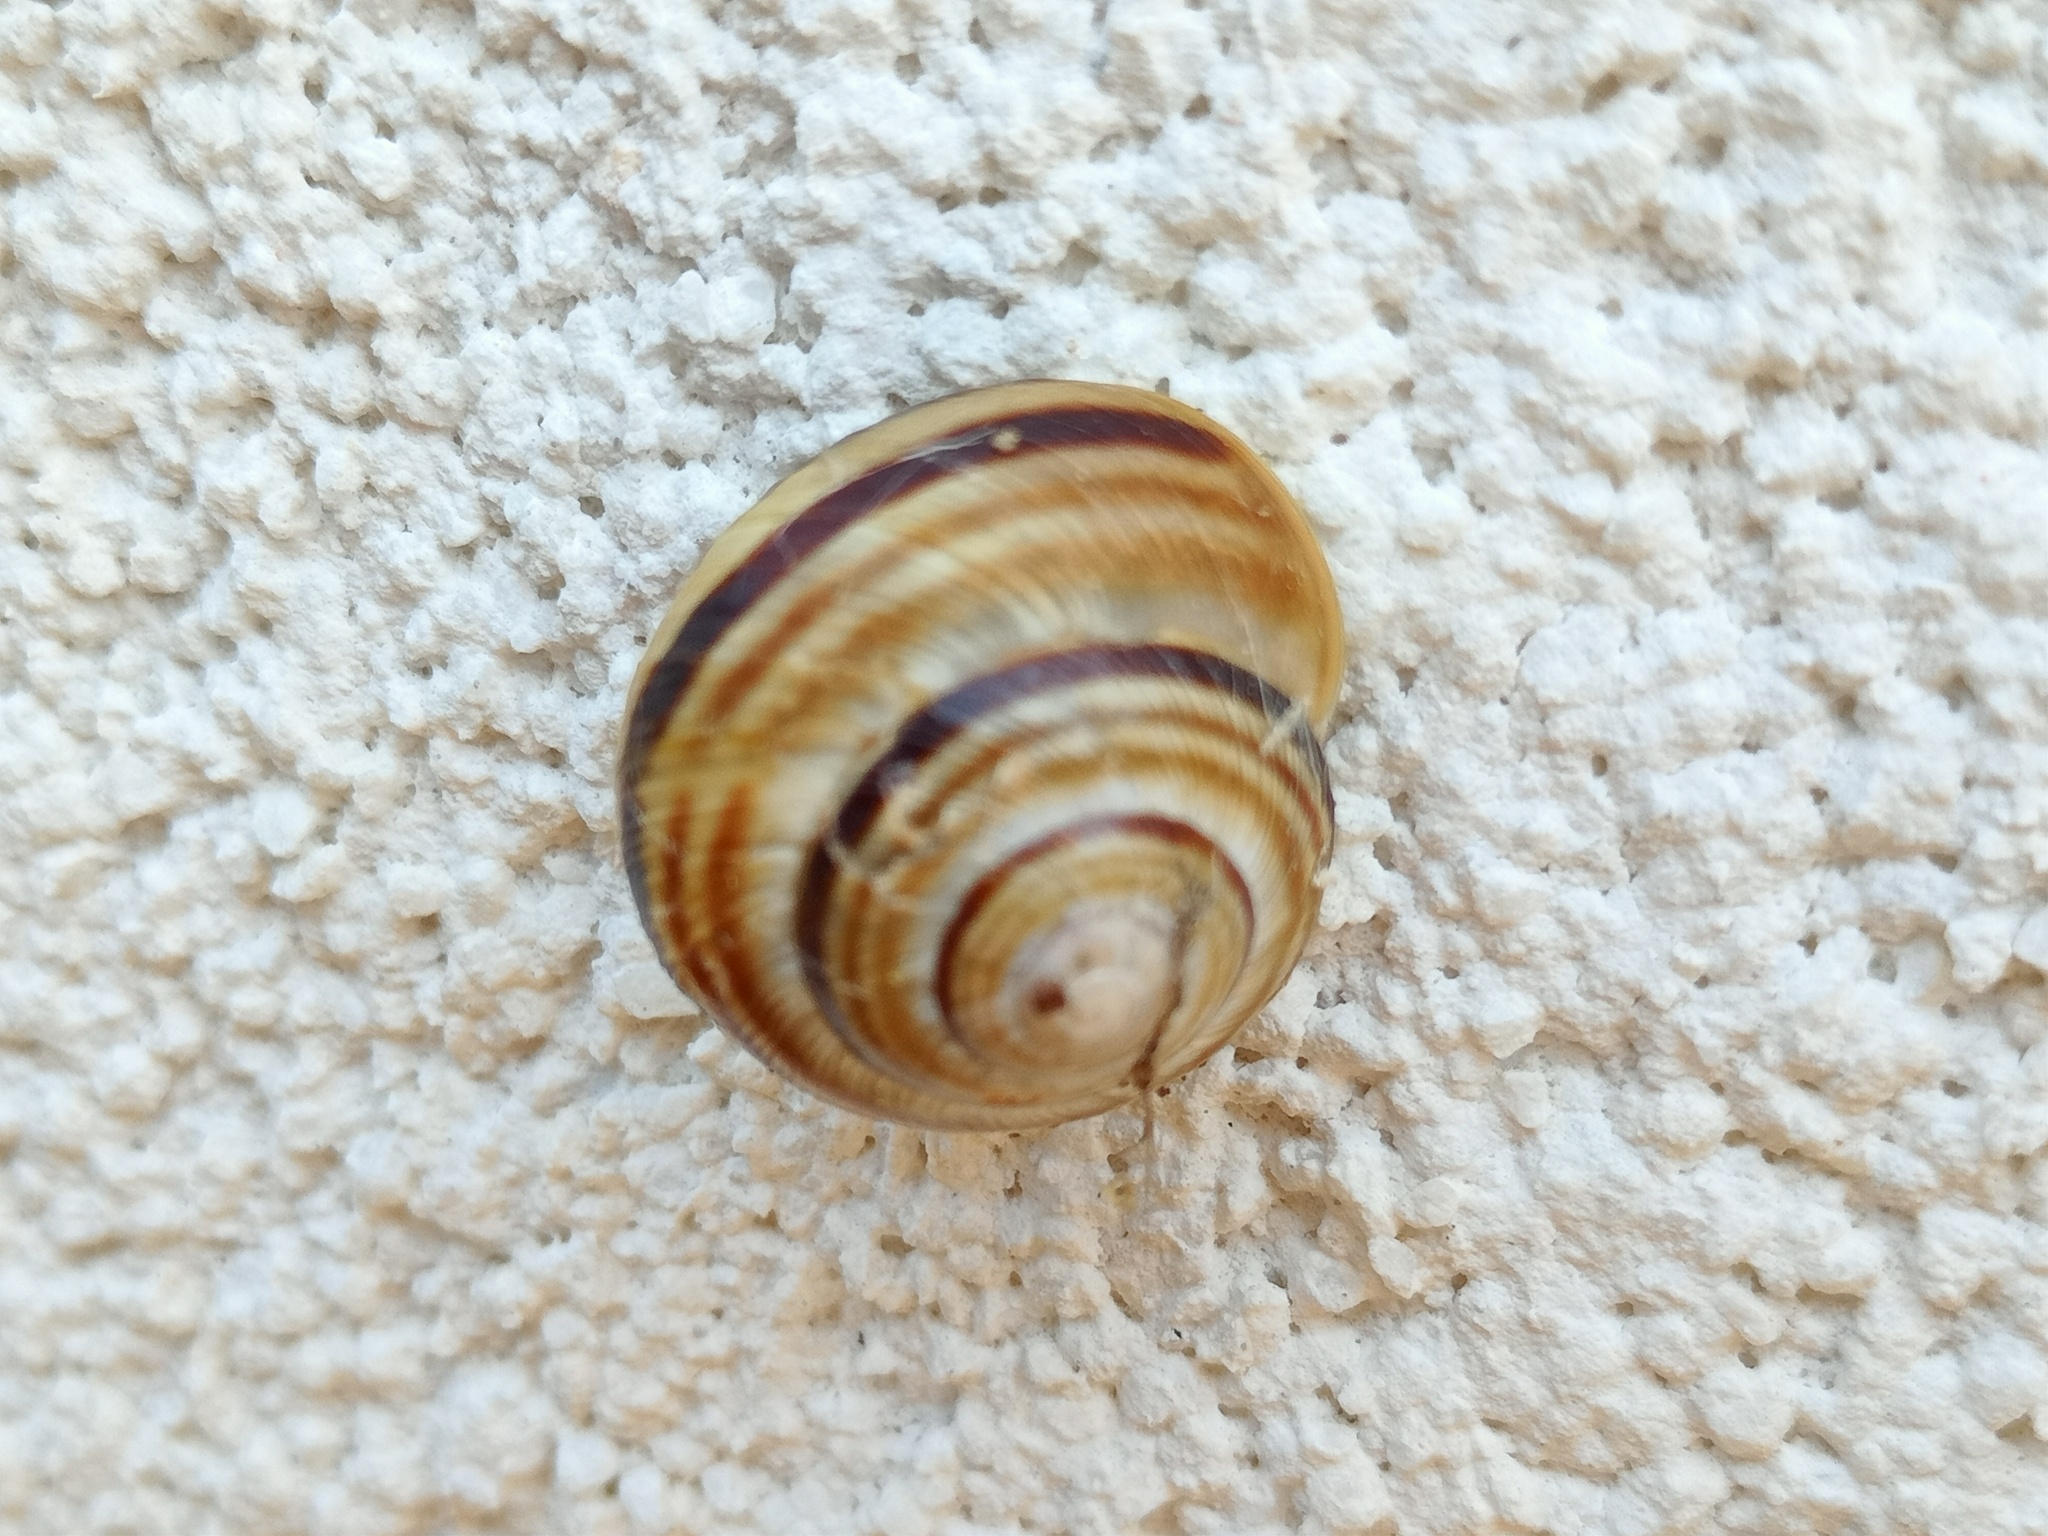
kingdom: Animalia
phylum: Mollusca
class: Gastropoda
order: Stylommatophora
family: Helicidae
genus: Caucasotachea
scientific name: Caucasotachea vindobonensis
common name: European helicid land snail
